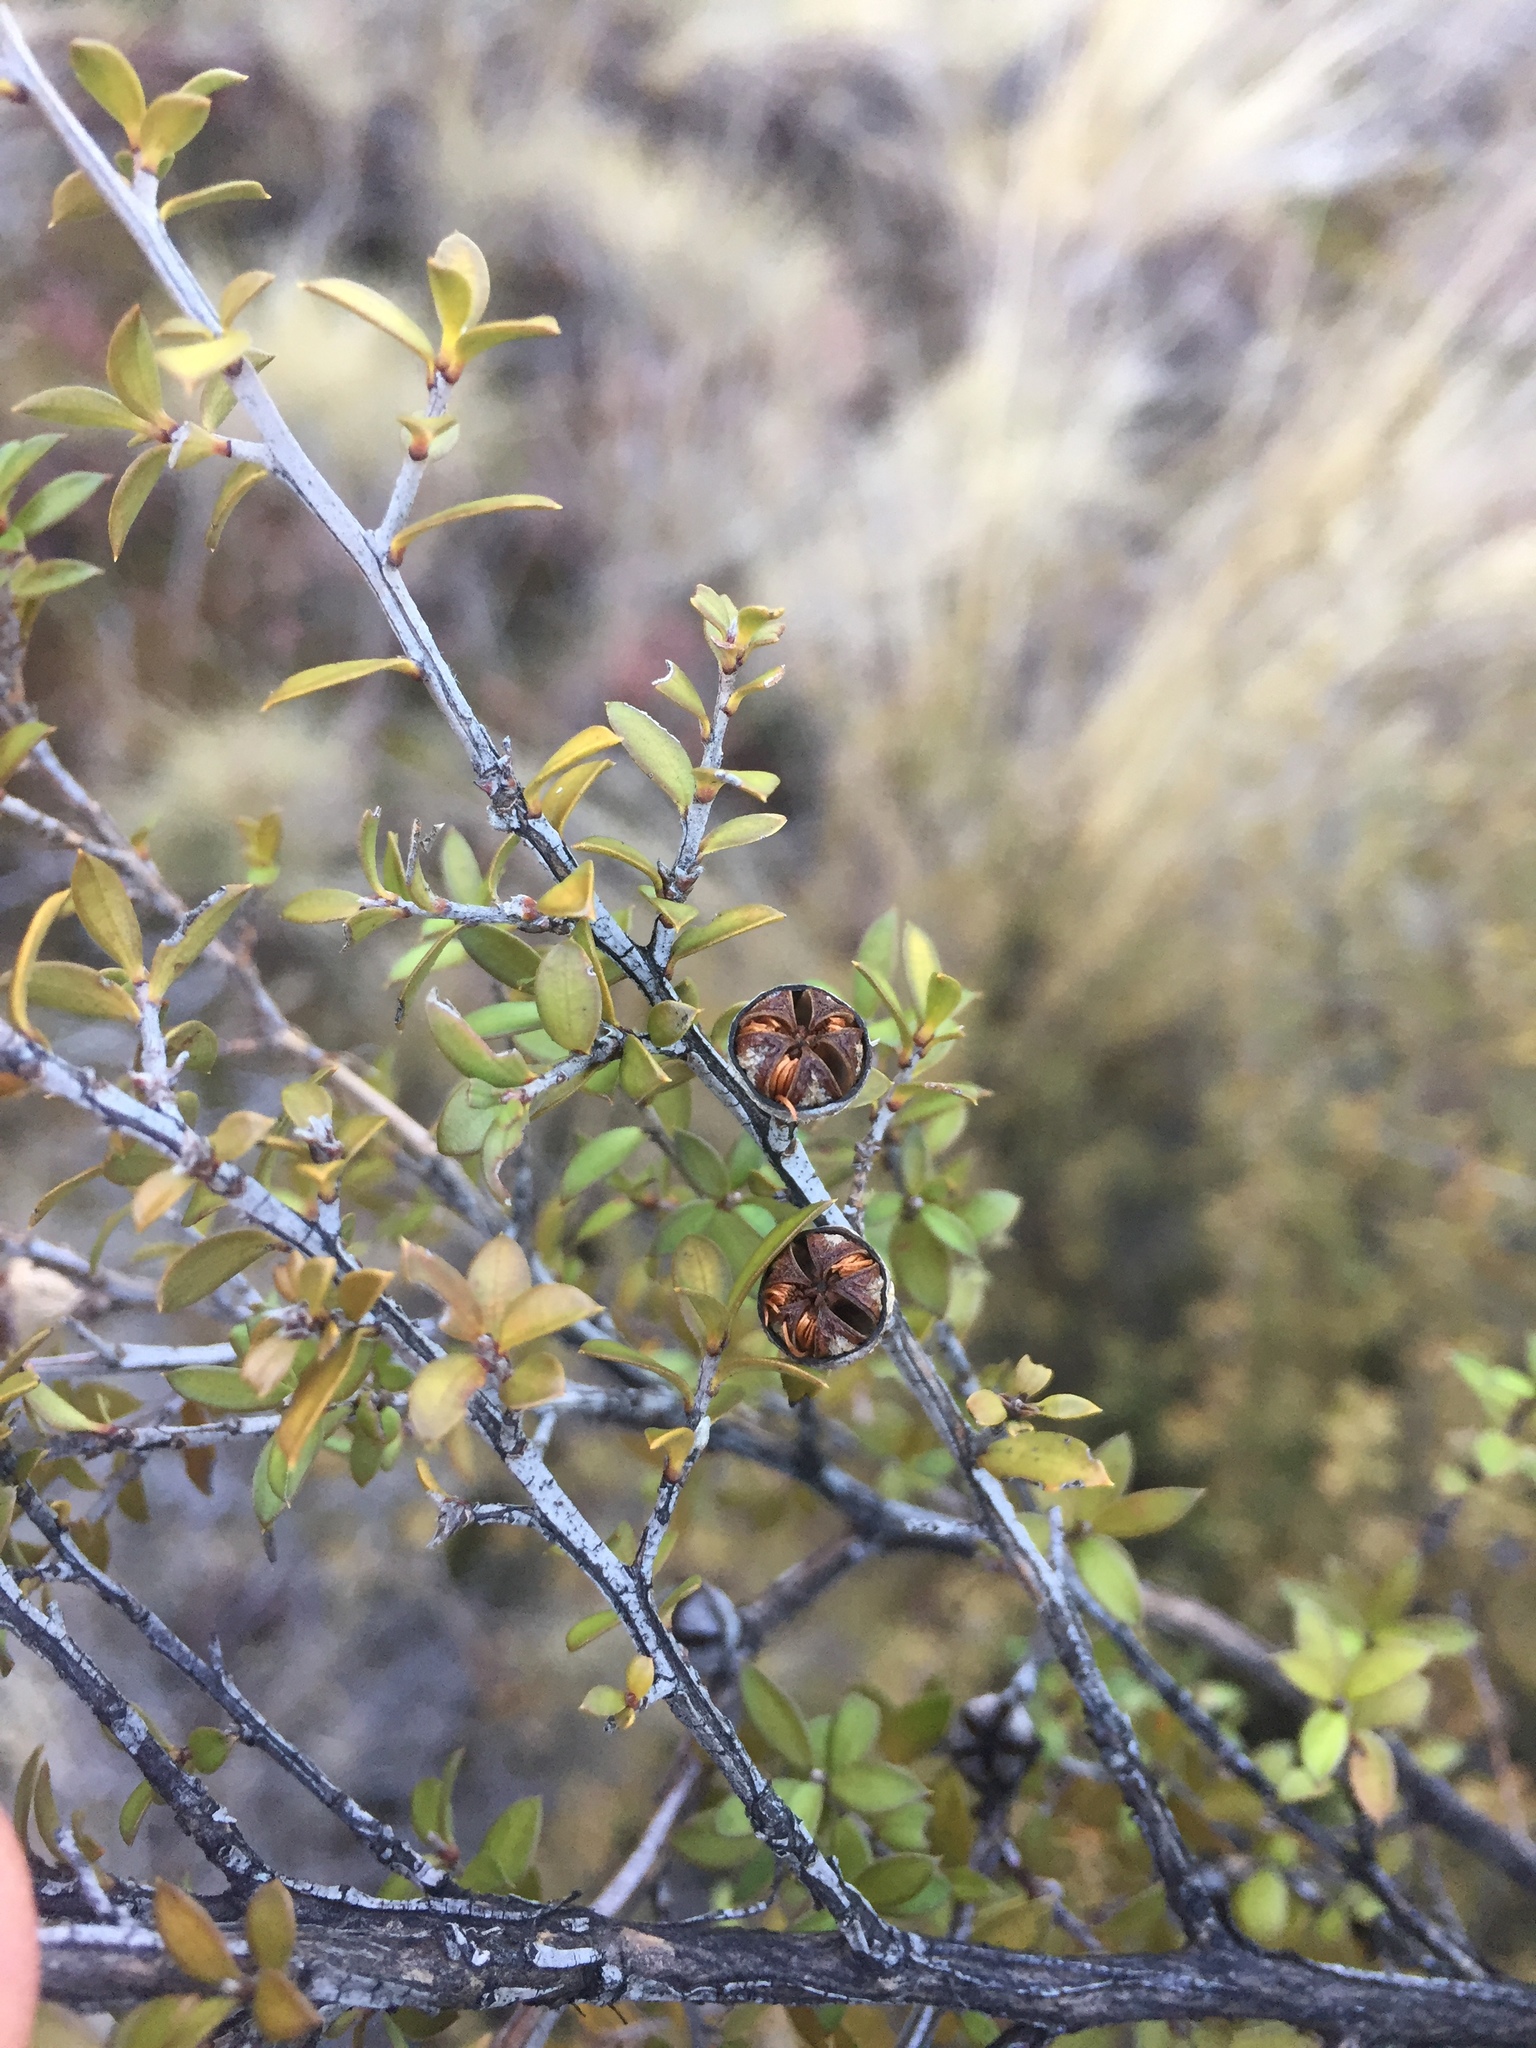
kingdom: Plantae
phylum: Tracheophyta
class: Magnoliopsida
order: Myrtales
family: Myrtaceae
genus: Leptospermum
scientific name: Leptospermum scoparium
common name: Broom tea-tree
